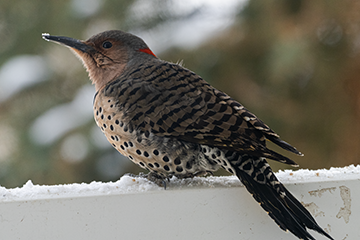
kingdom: Animalia
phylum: Chordata
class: Aves
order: Piciformes
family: Picidae
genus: Colaptes
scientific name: Colaptes auratus
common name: Northern flicker
